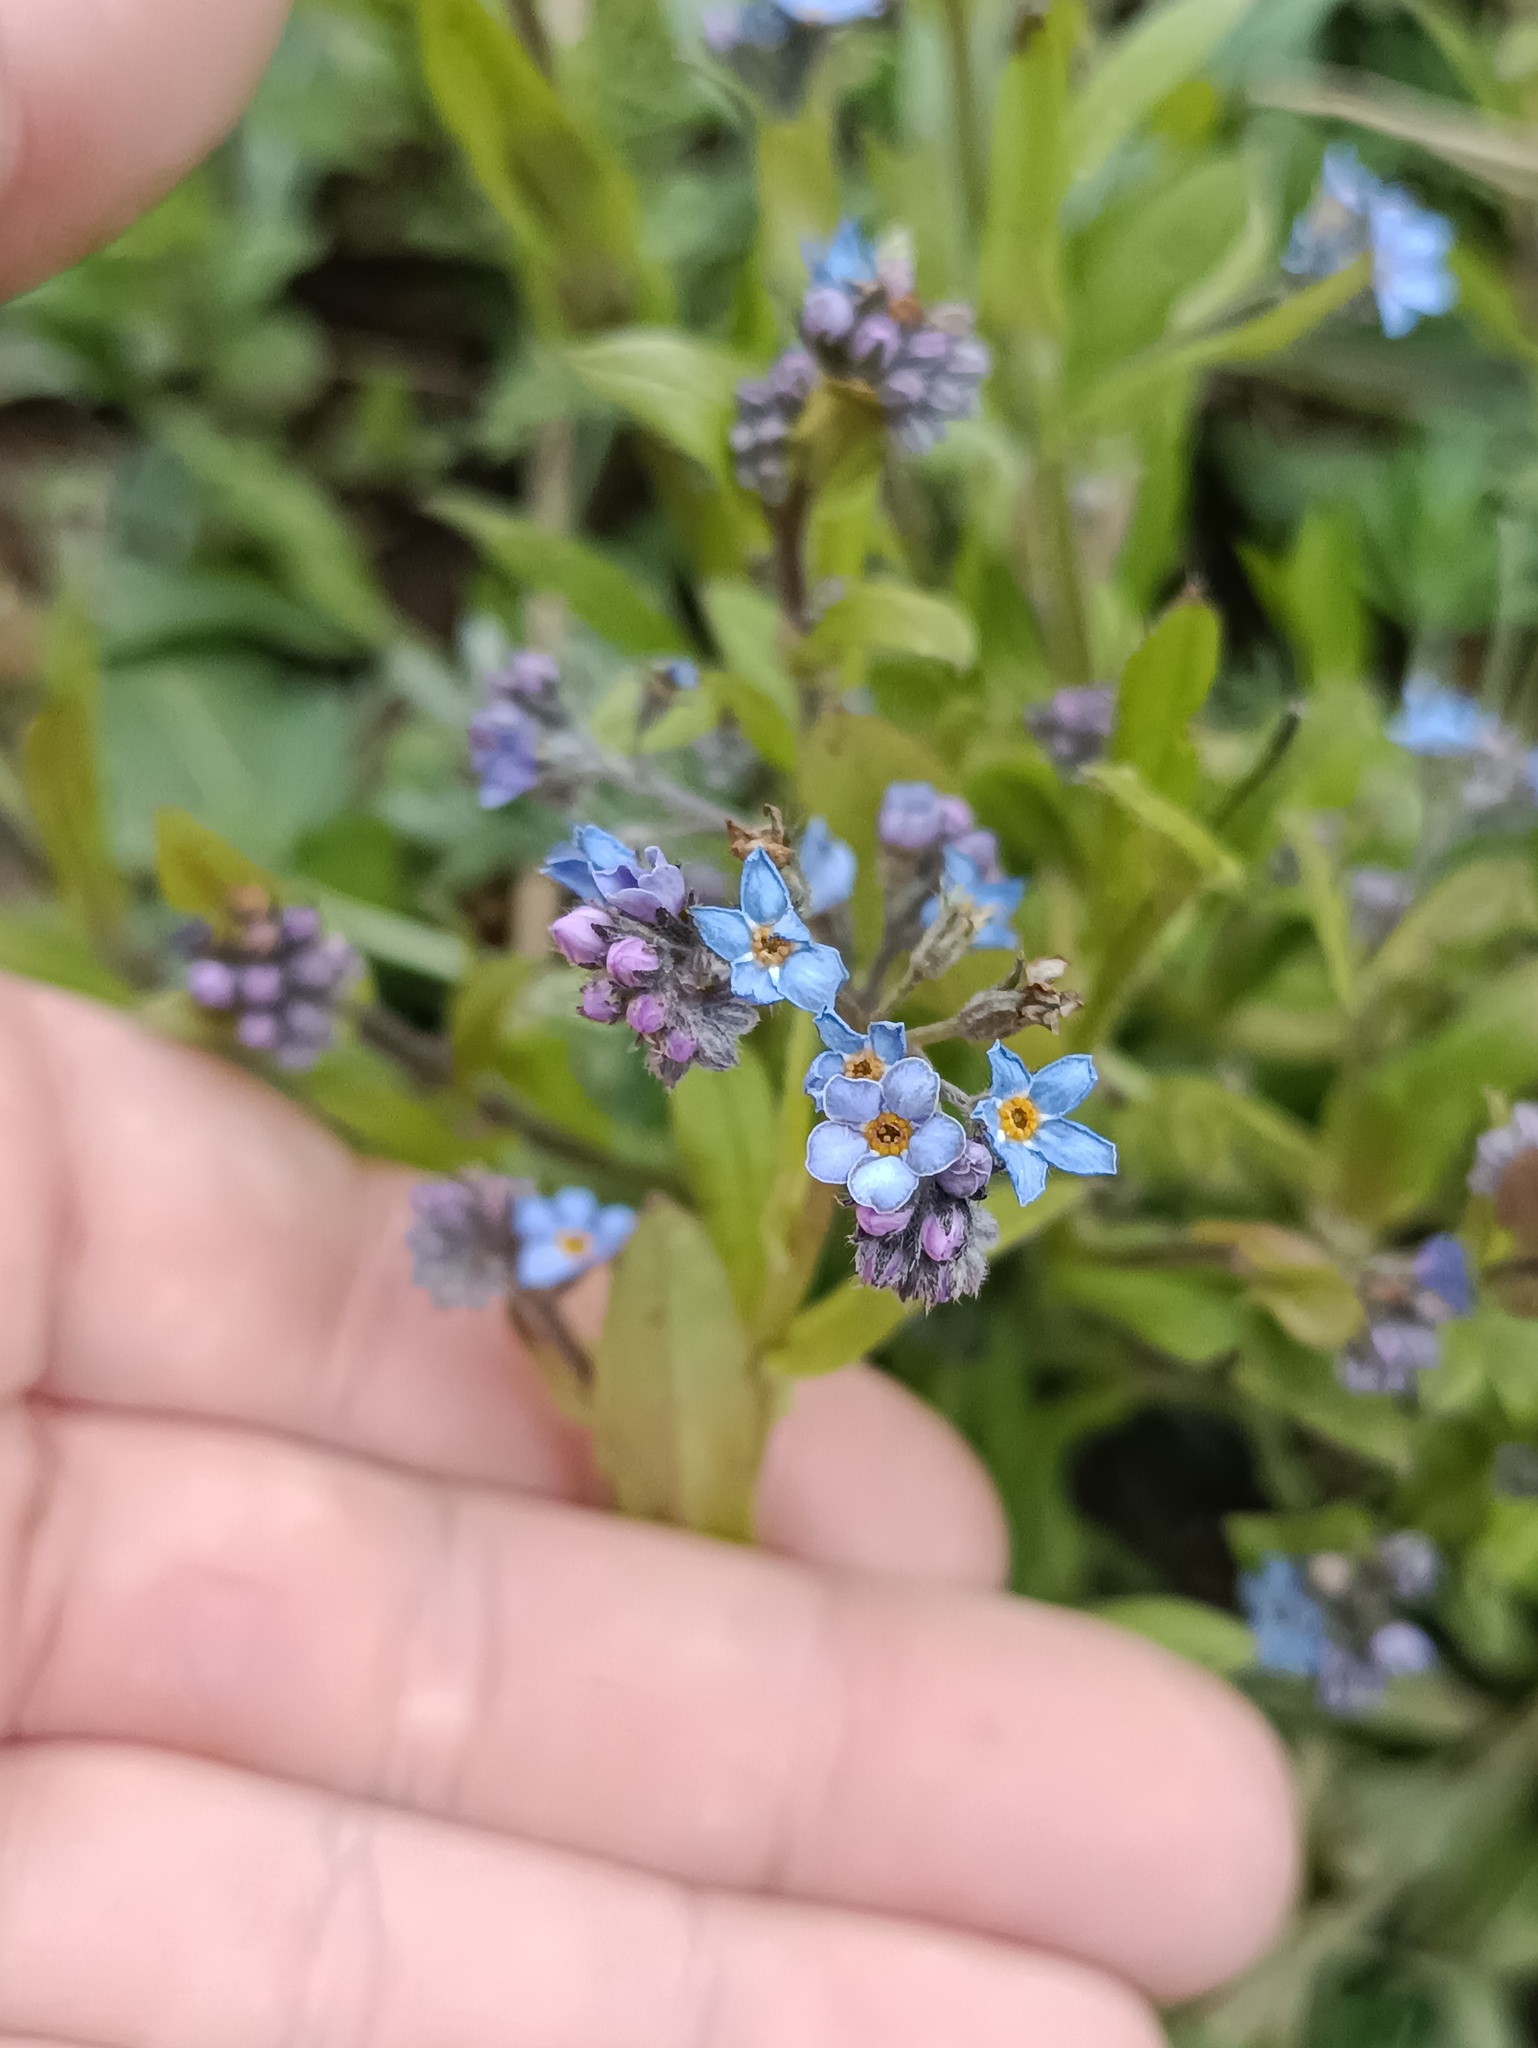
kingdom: Plantae
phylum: Tracheophyta
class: Magnoliopsida
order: Boraginales
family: Boraginaceae
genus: Myosotis
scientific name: Myosotis sylvatica
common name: Wood forget-me-not
